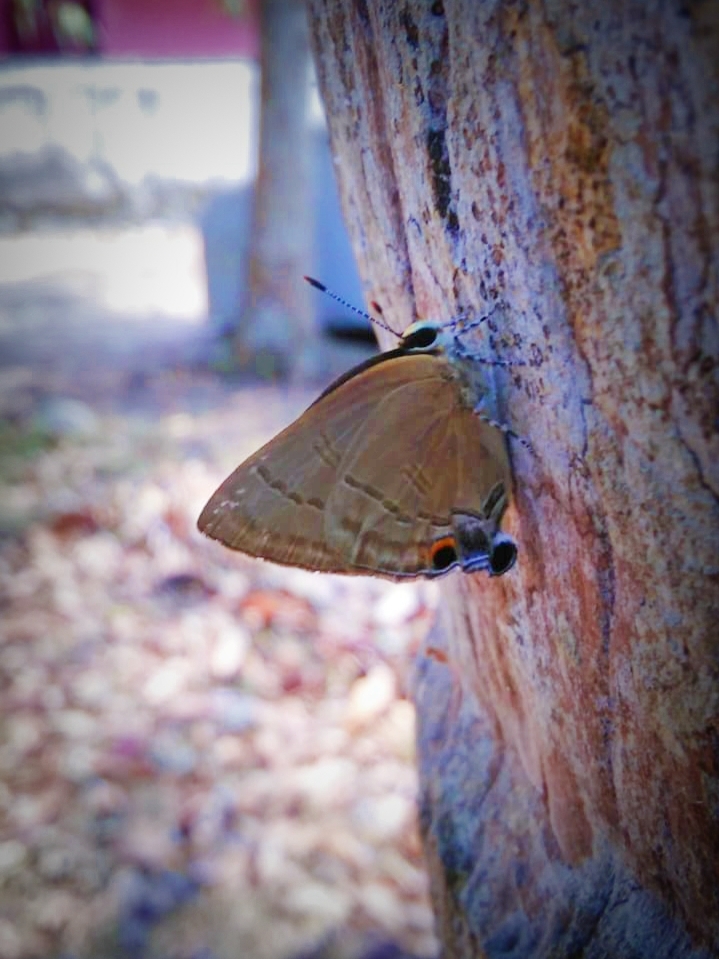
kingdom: Animalia
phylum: Arthropoda
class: Insecta
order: Lepidoptera
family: Lycaenidae
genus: Rapala
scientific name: Rapala manea
